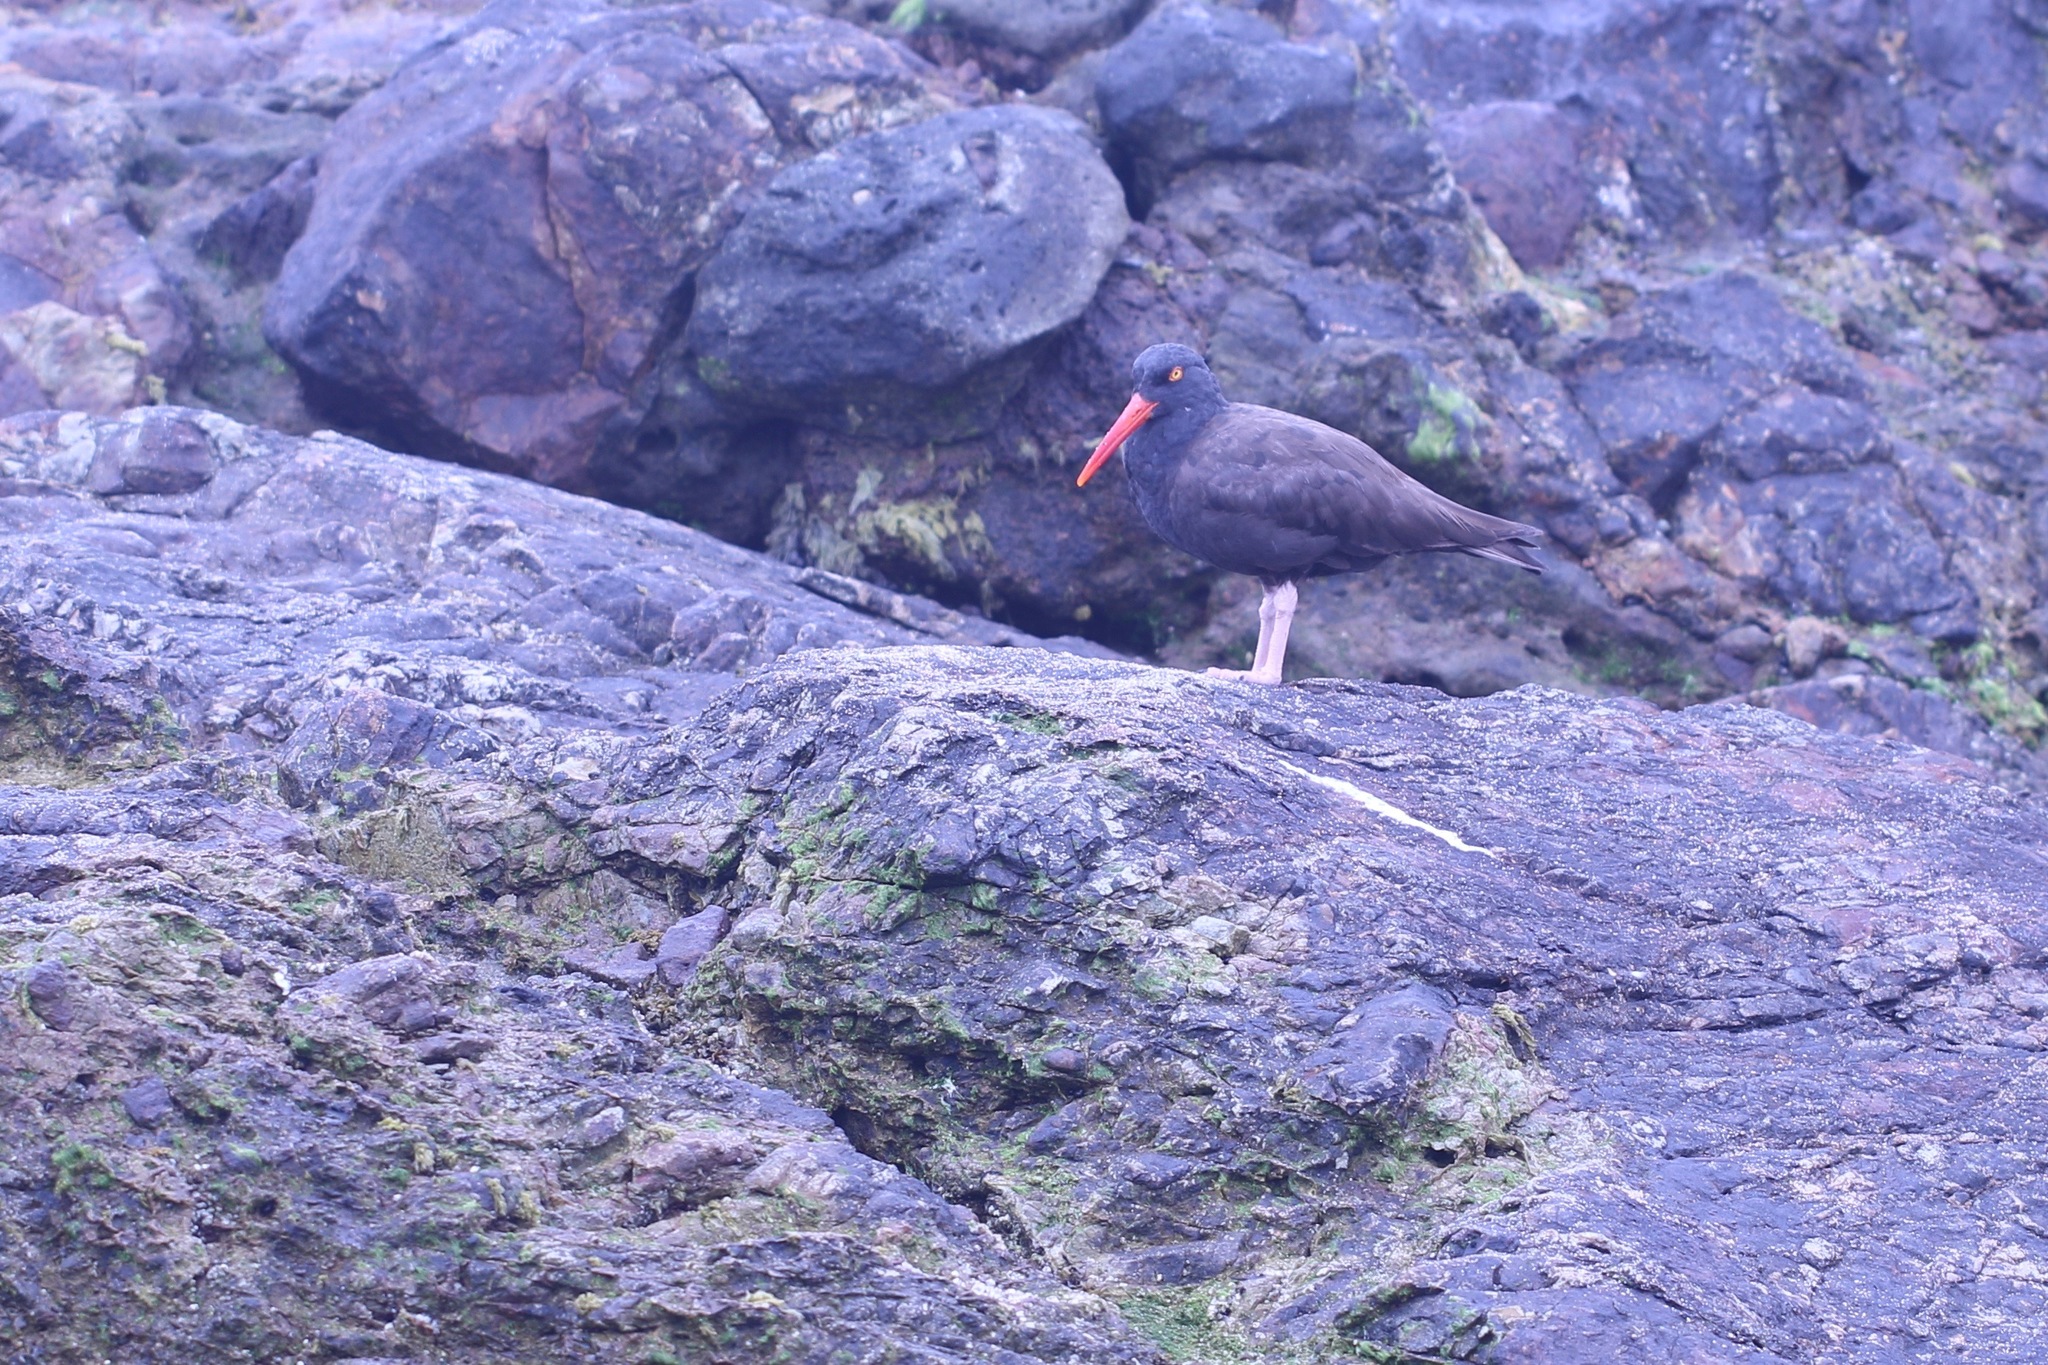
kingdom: Animalia
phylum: Chordata
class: Aves
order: Charadriiformes
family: Haematopodidae
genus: Haematopus
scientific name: Haematopus bachmani
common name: Black oystercatcher
